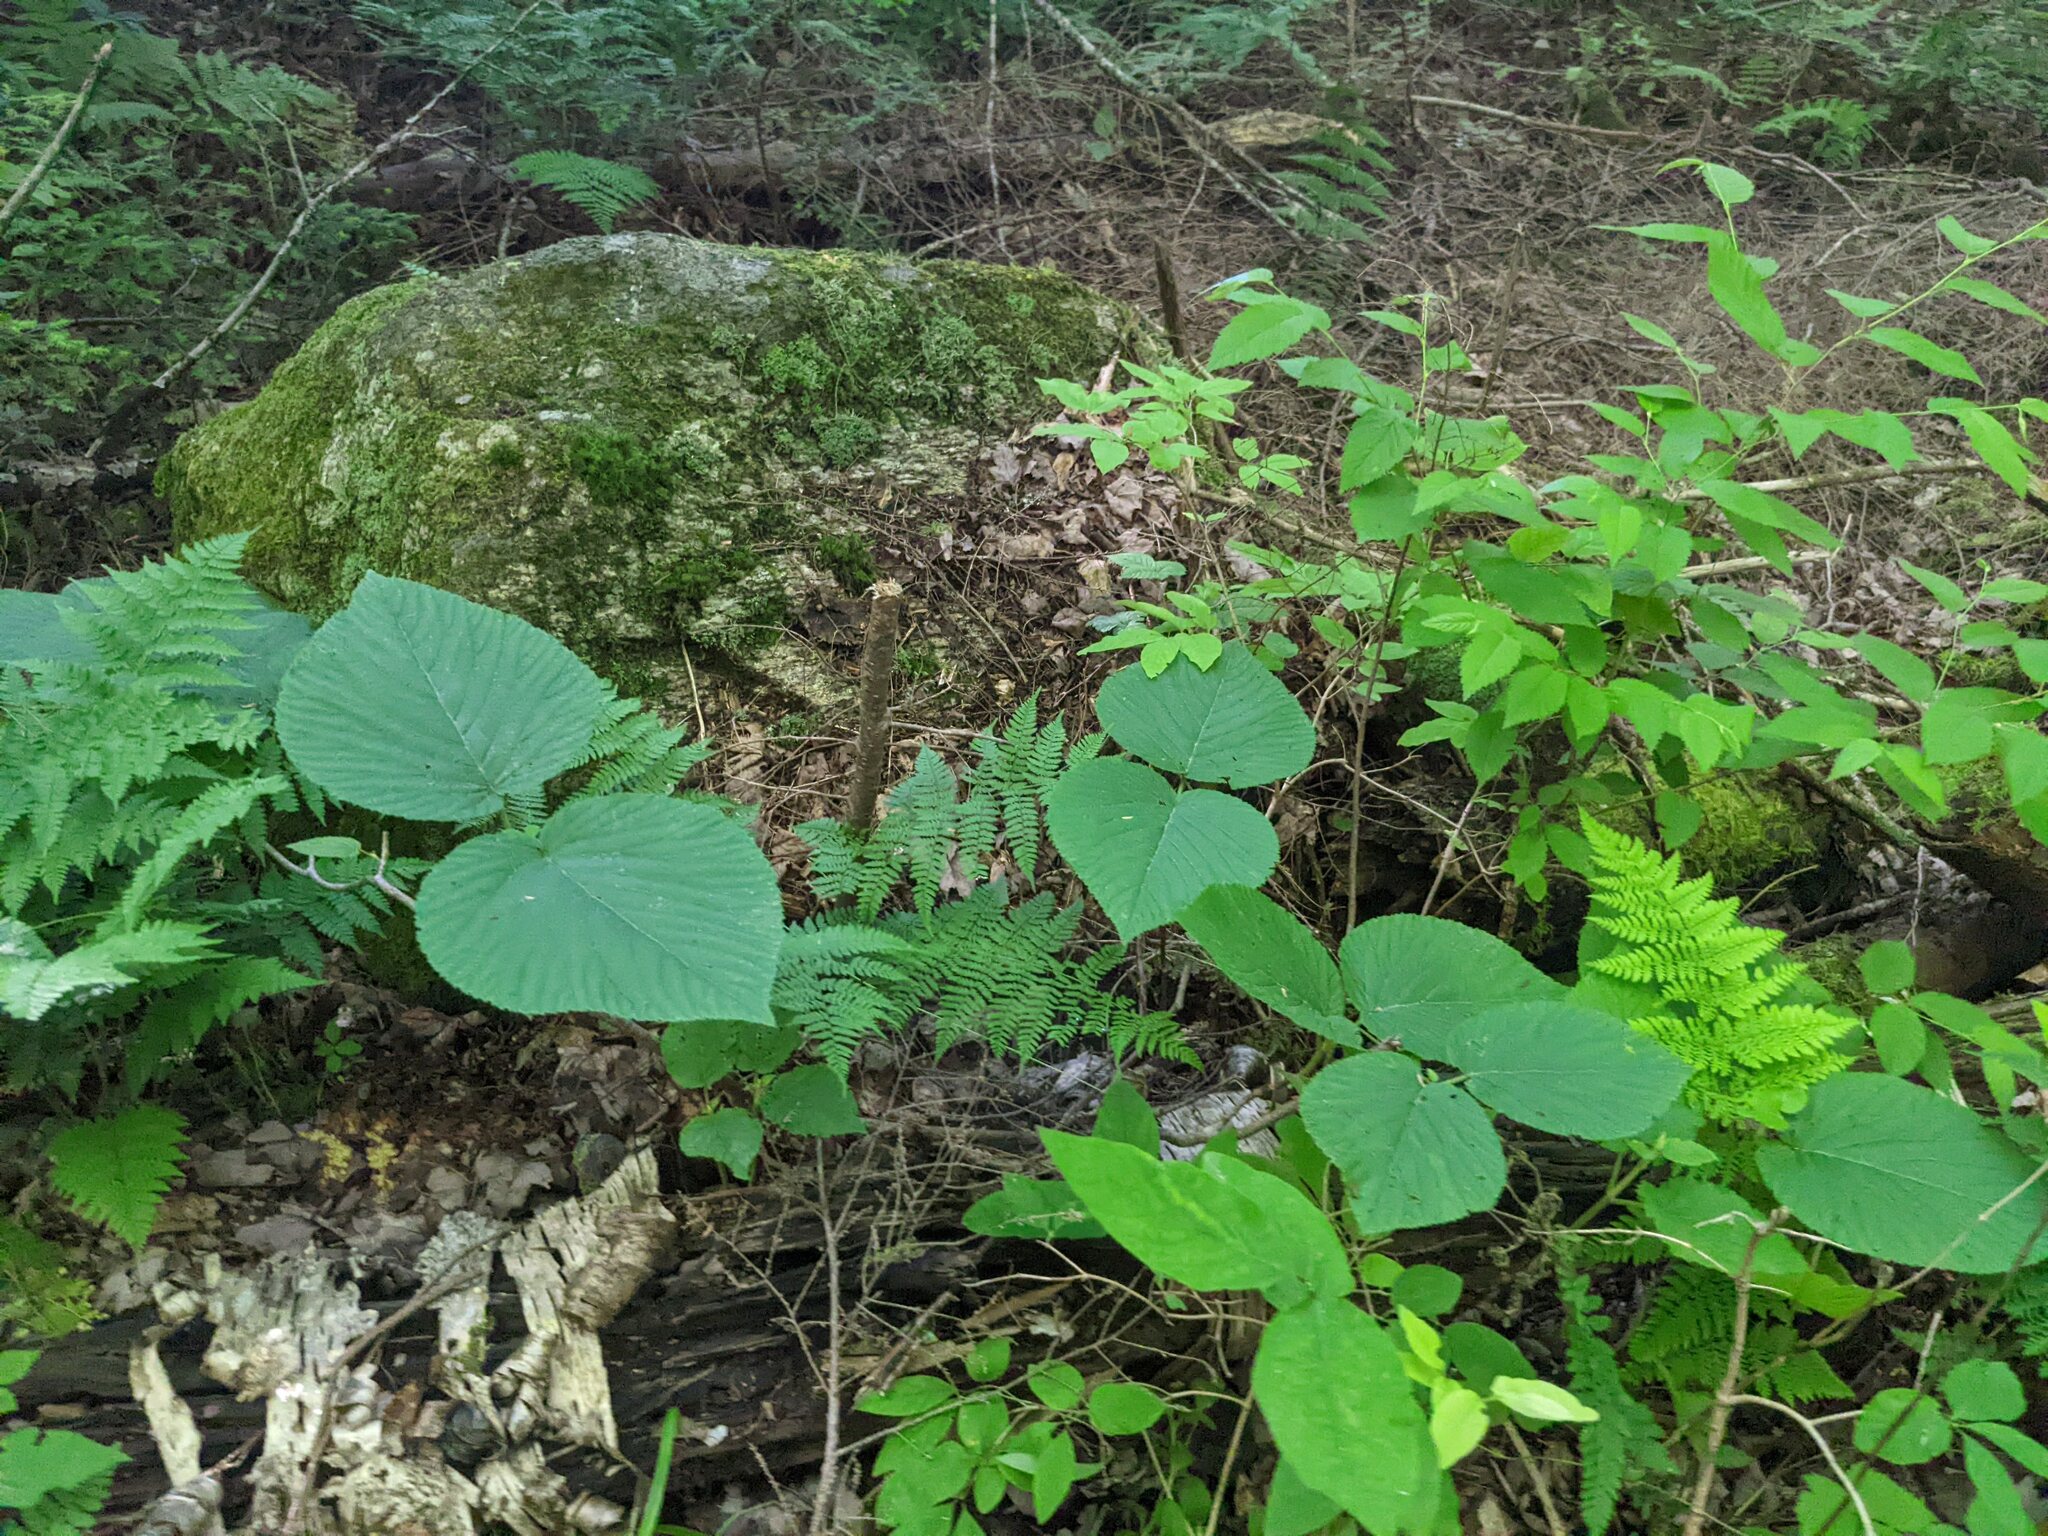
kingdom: Plantae
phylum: Tracheophyta
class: Magnoliopsida
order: Dipsacales
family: Viburnaceae
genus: Viburnum
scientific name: Viburnum lantanoides
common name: Hobblebush
